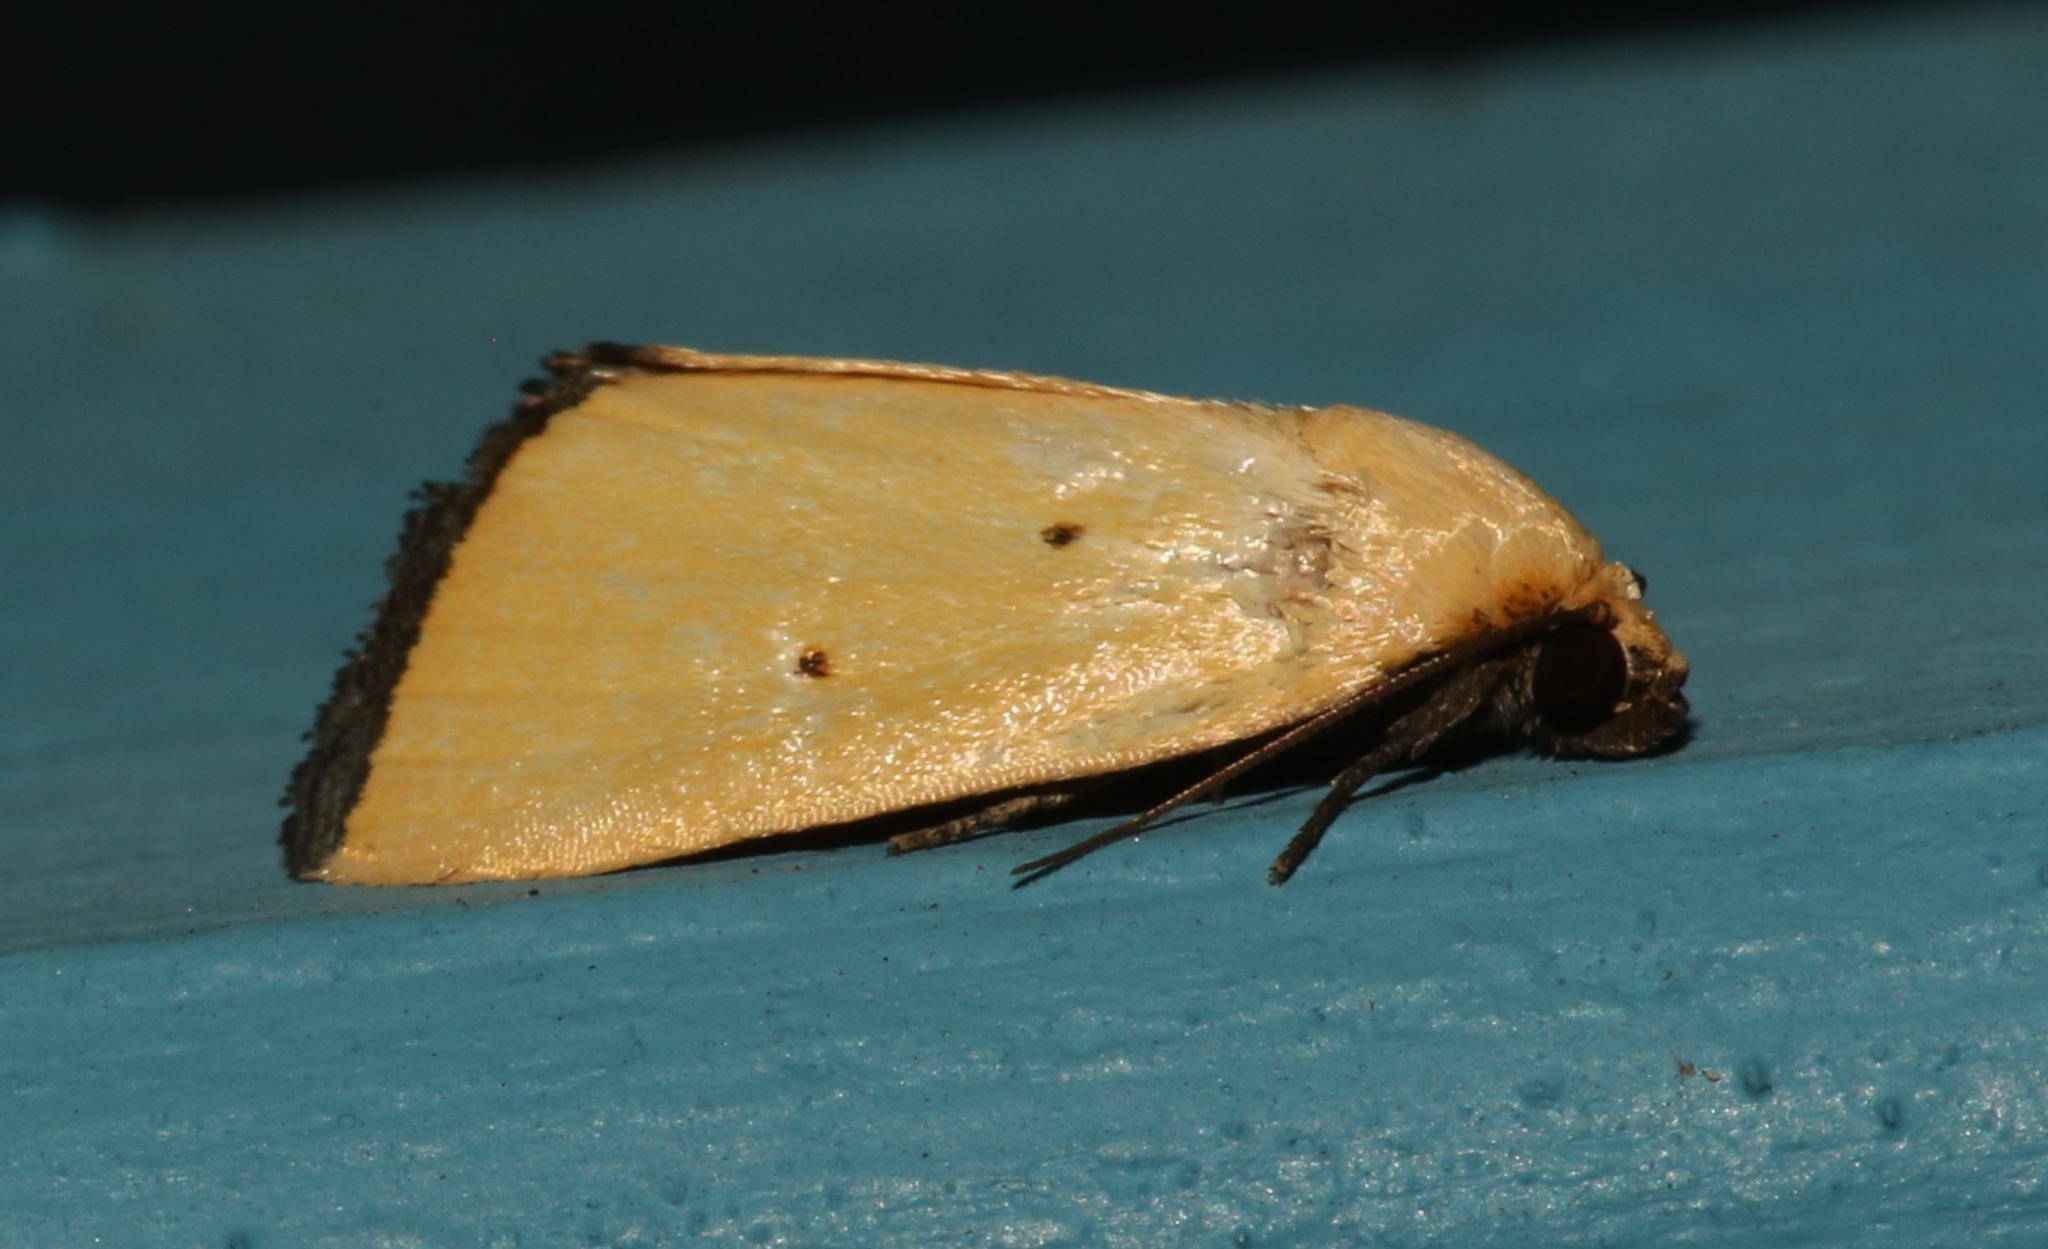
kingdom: Animalia
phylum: Arthropoda
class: Insecta
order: Lepidoptera
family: Noctuidae
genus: Marimatha
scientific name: Marimatha nigrofimbria
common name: Black-bordered lemon moth
